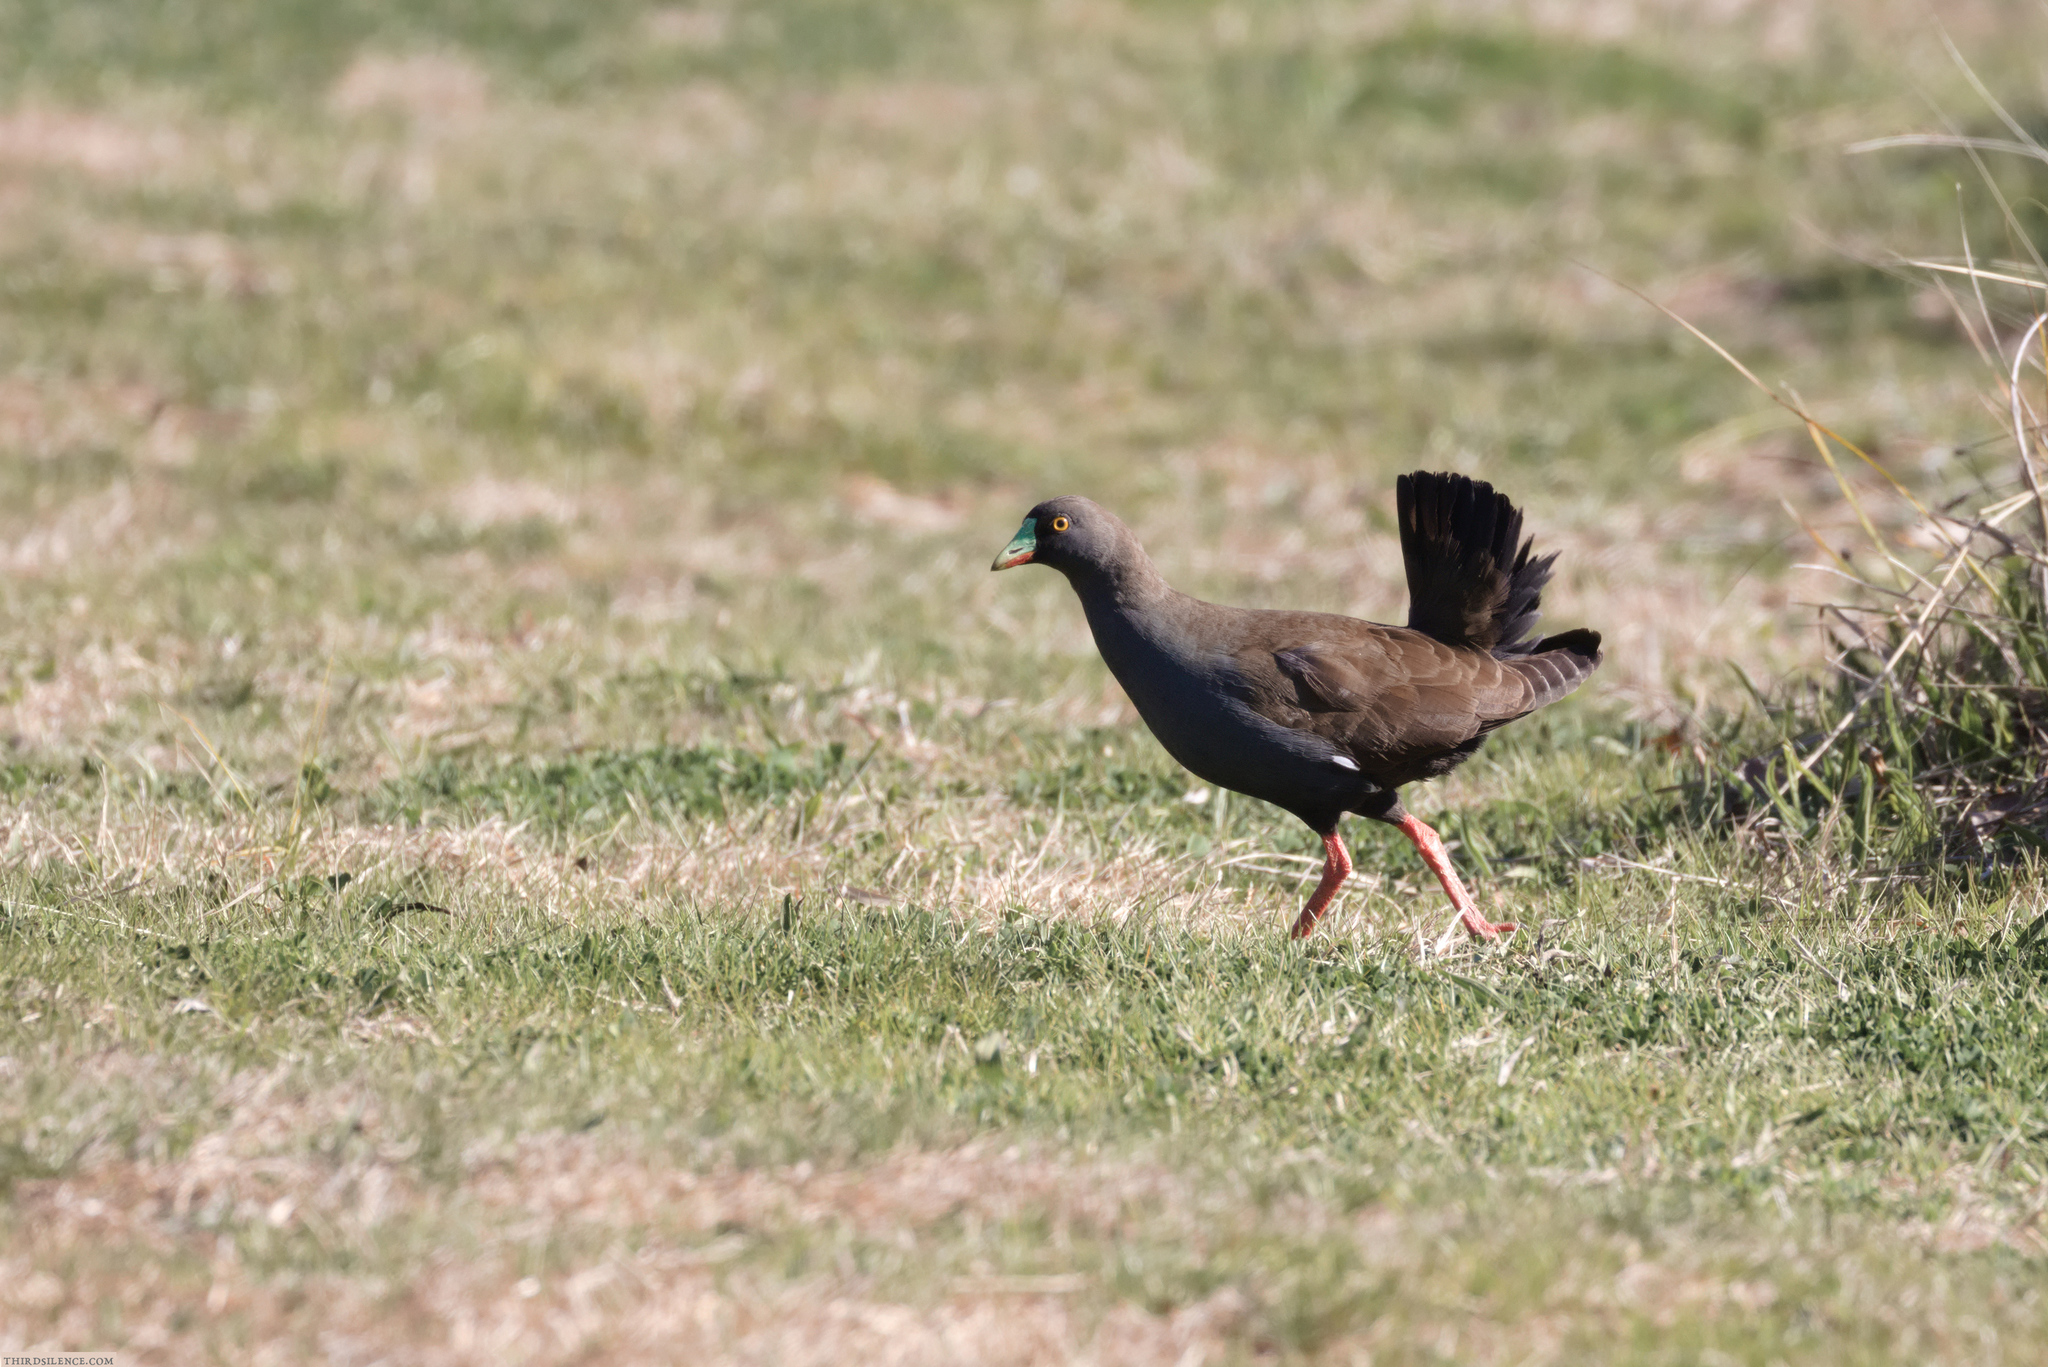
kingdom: Animalia
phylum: Chordata
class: Aves
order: Gruiformes
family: Rallidae
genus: Gallinula
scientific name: Gallinula ventralis
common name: Black-tailed nativehen
